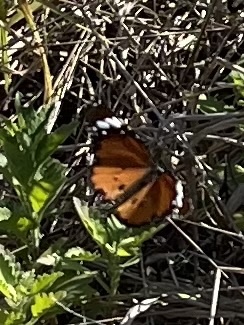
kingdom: Animalia
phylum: Arthropoda
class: Insecta
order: Lepidoptera
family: Nymphalidae
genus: Danaus
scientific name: Danaus chrysippus
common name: Plain tiger
